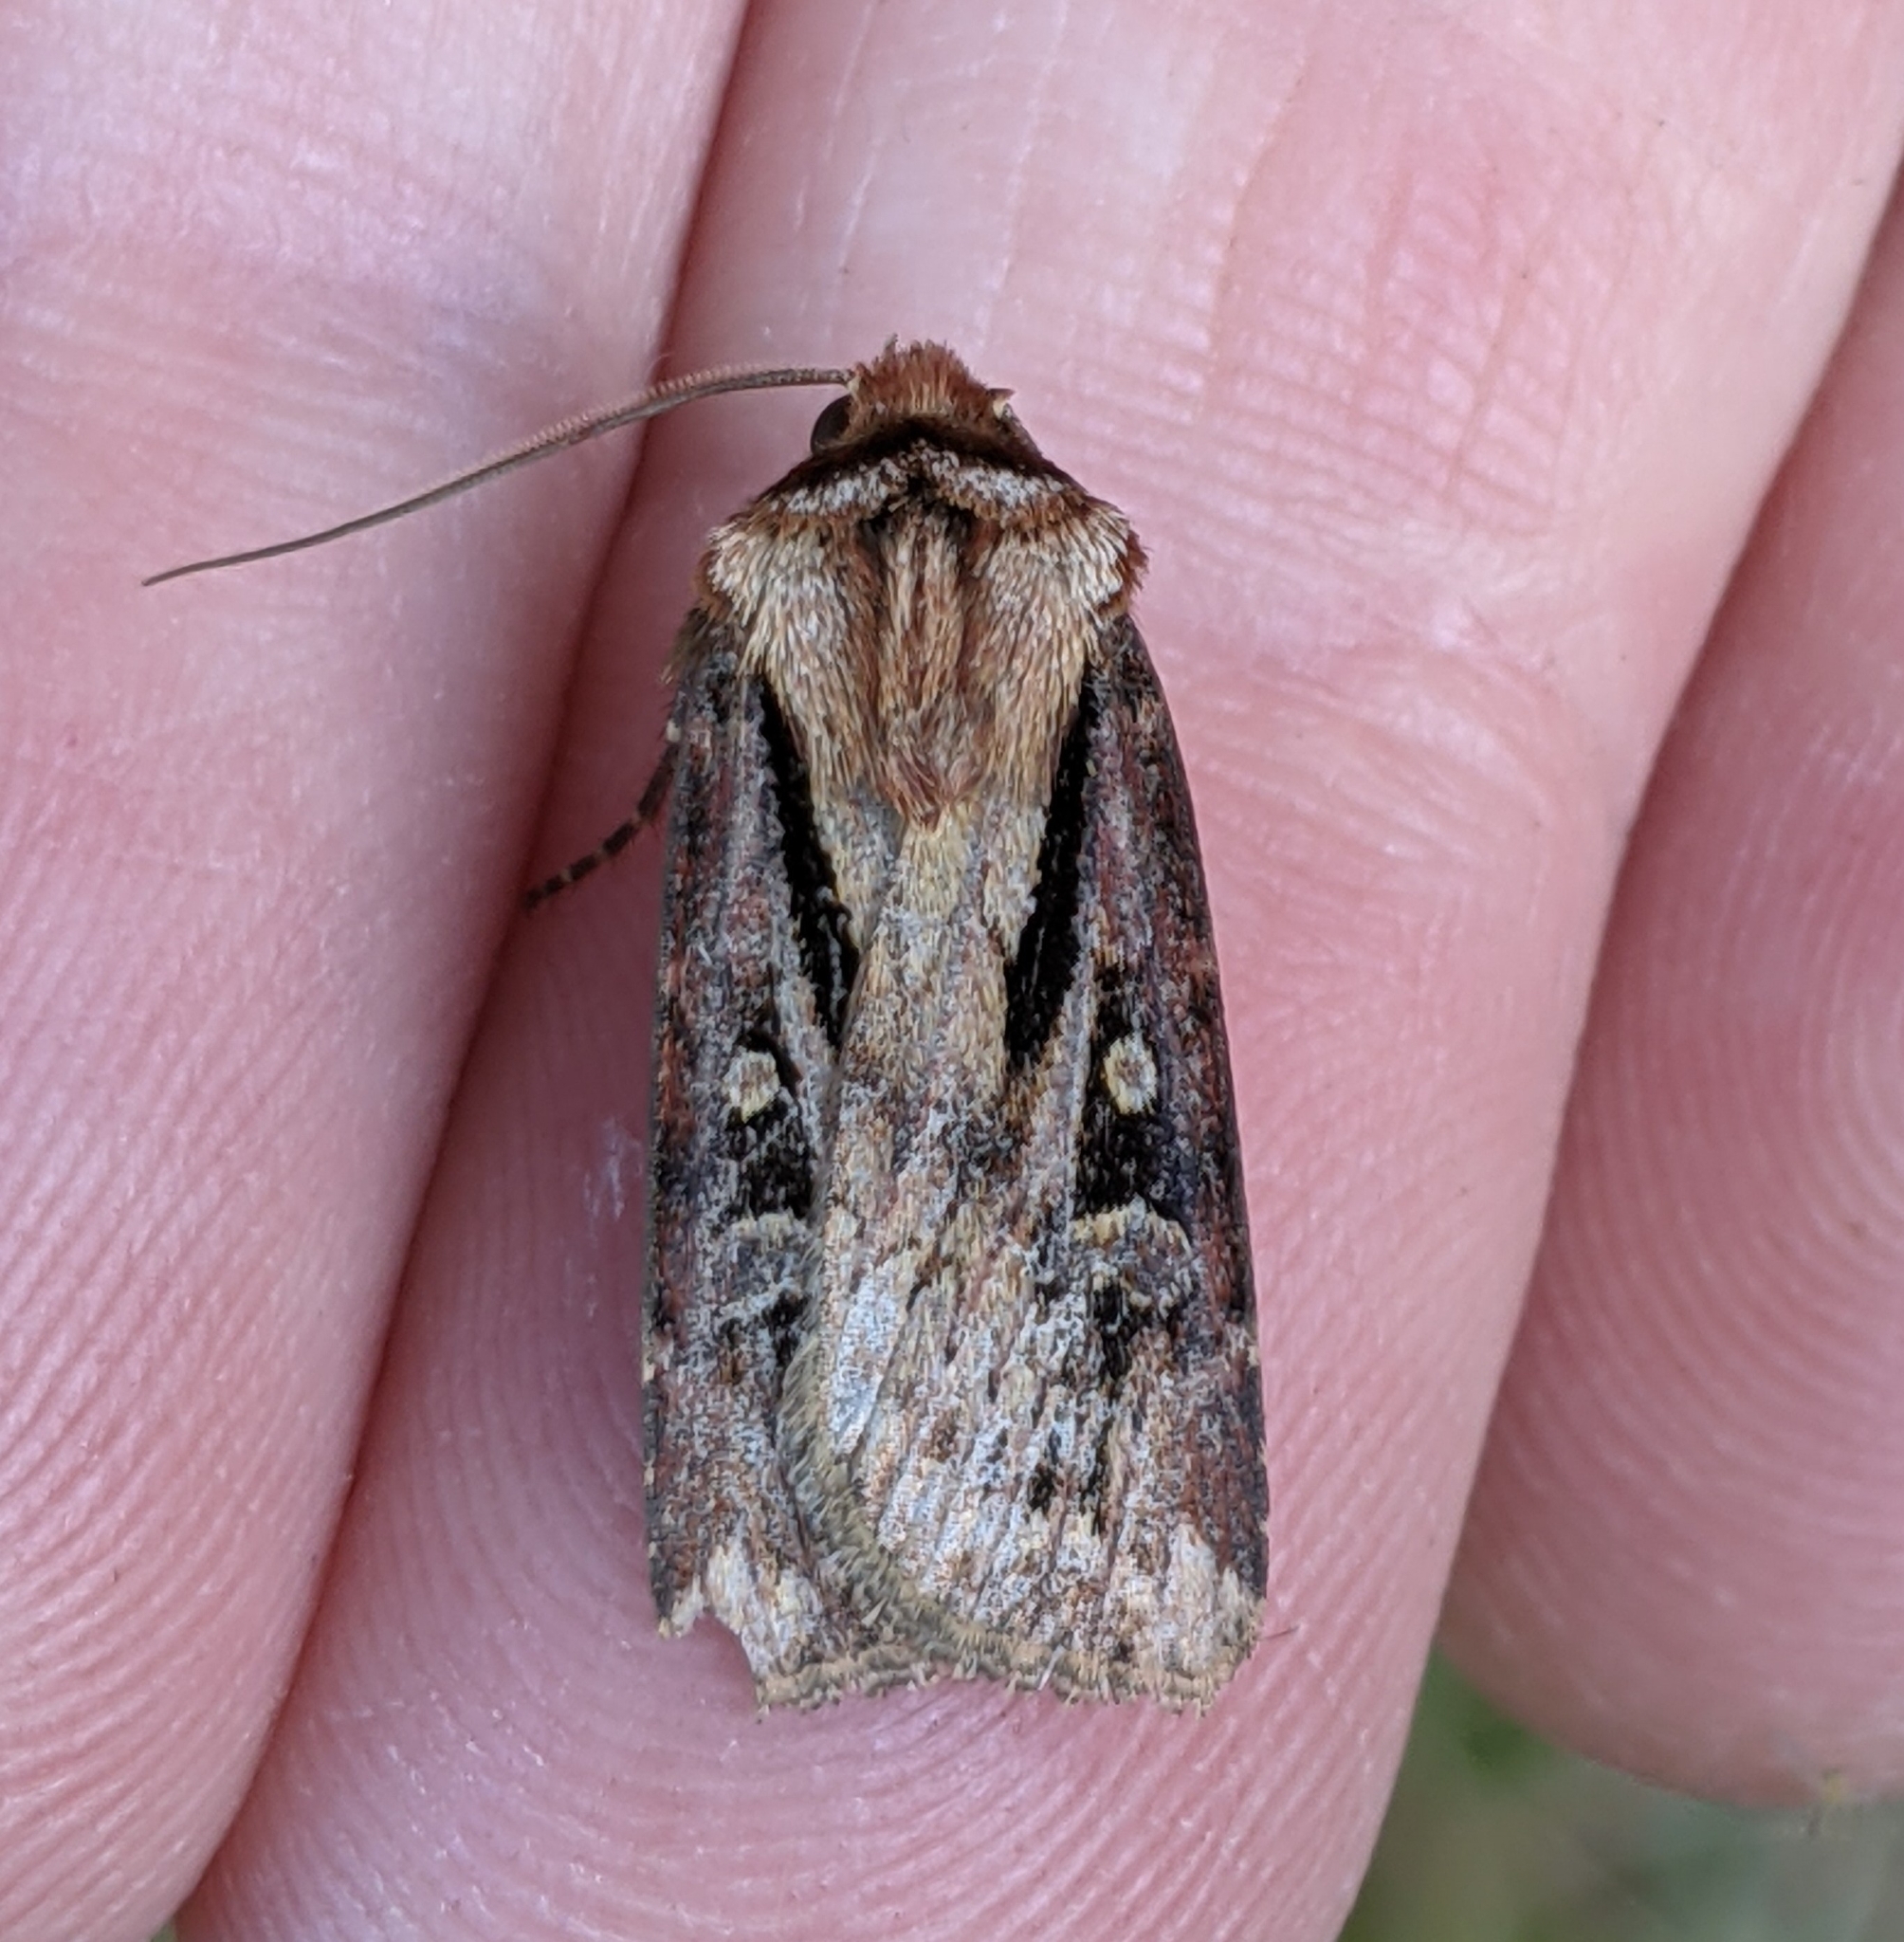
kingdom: Animalia
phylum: Arthropoda
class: Insecta
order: Lepidoptera
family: Noctuidae
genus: Agrotis
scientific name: Agrotis vancouverensis
